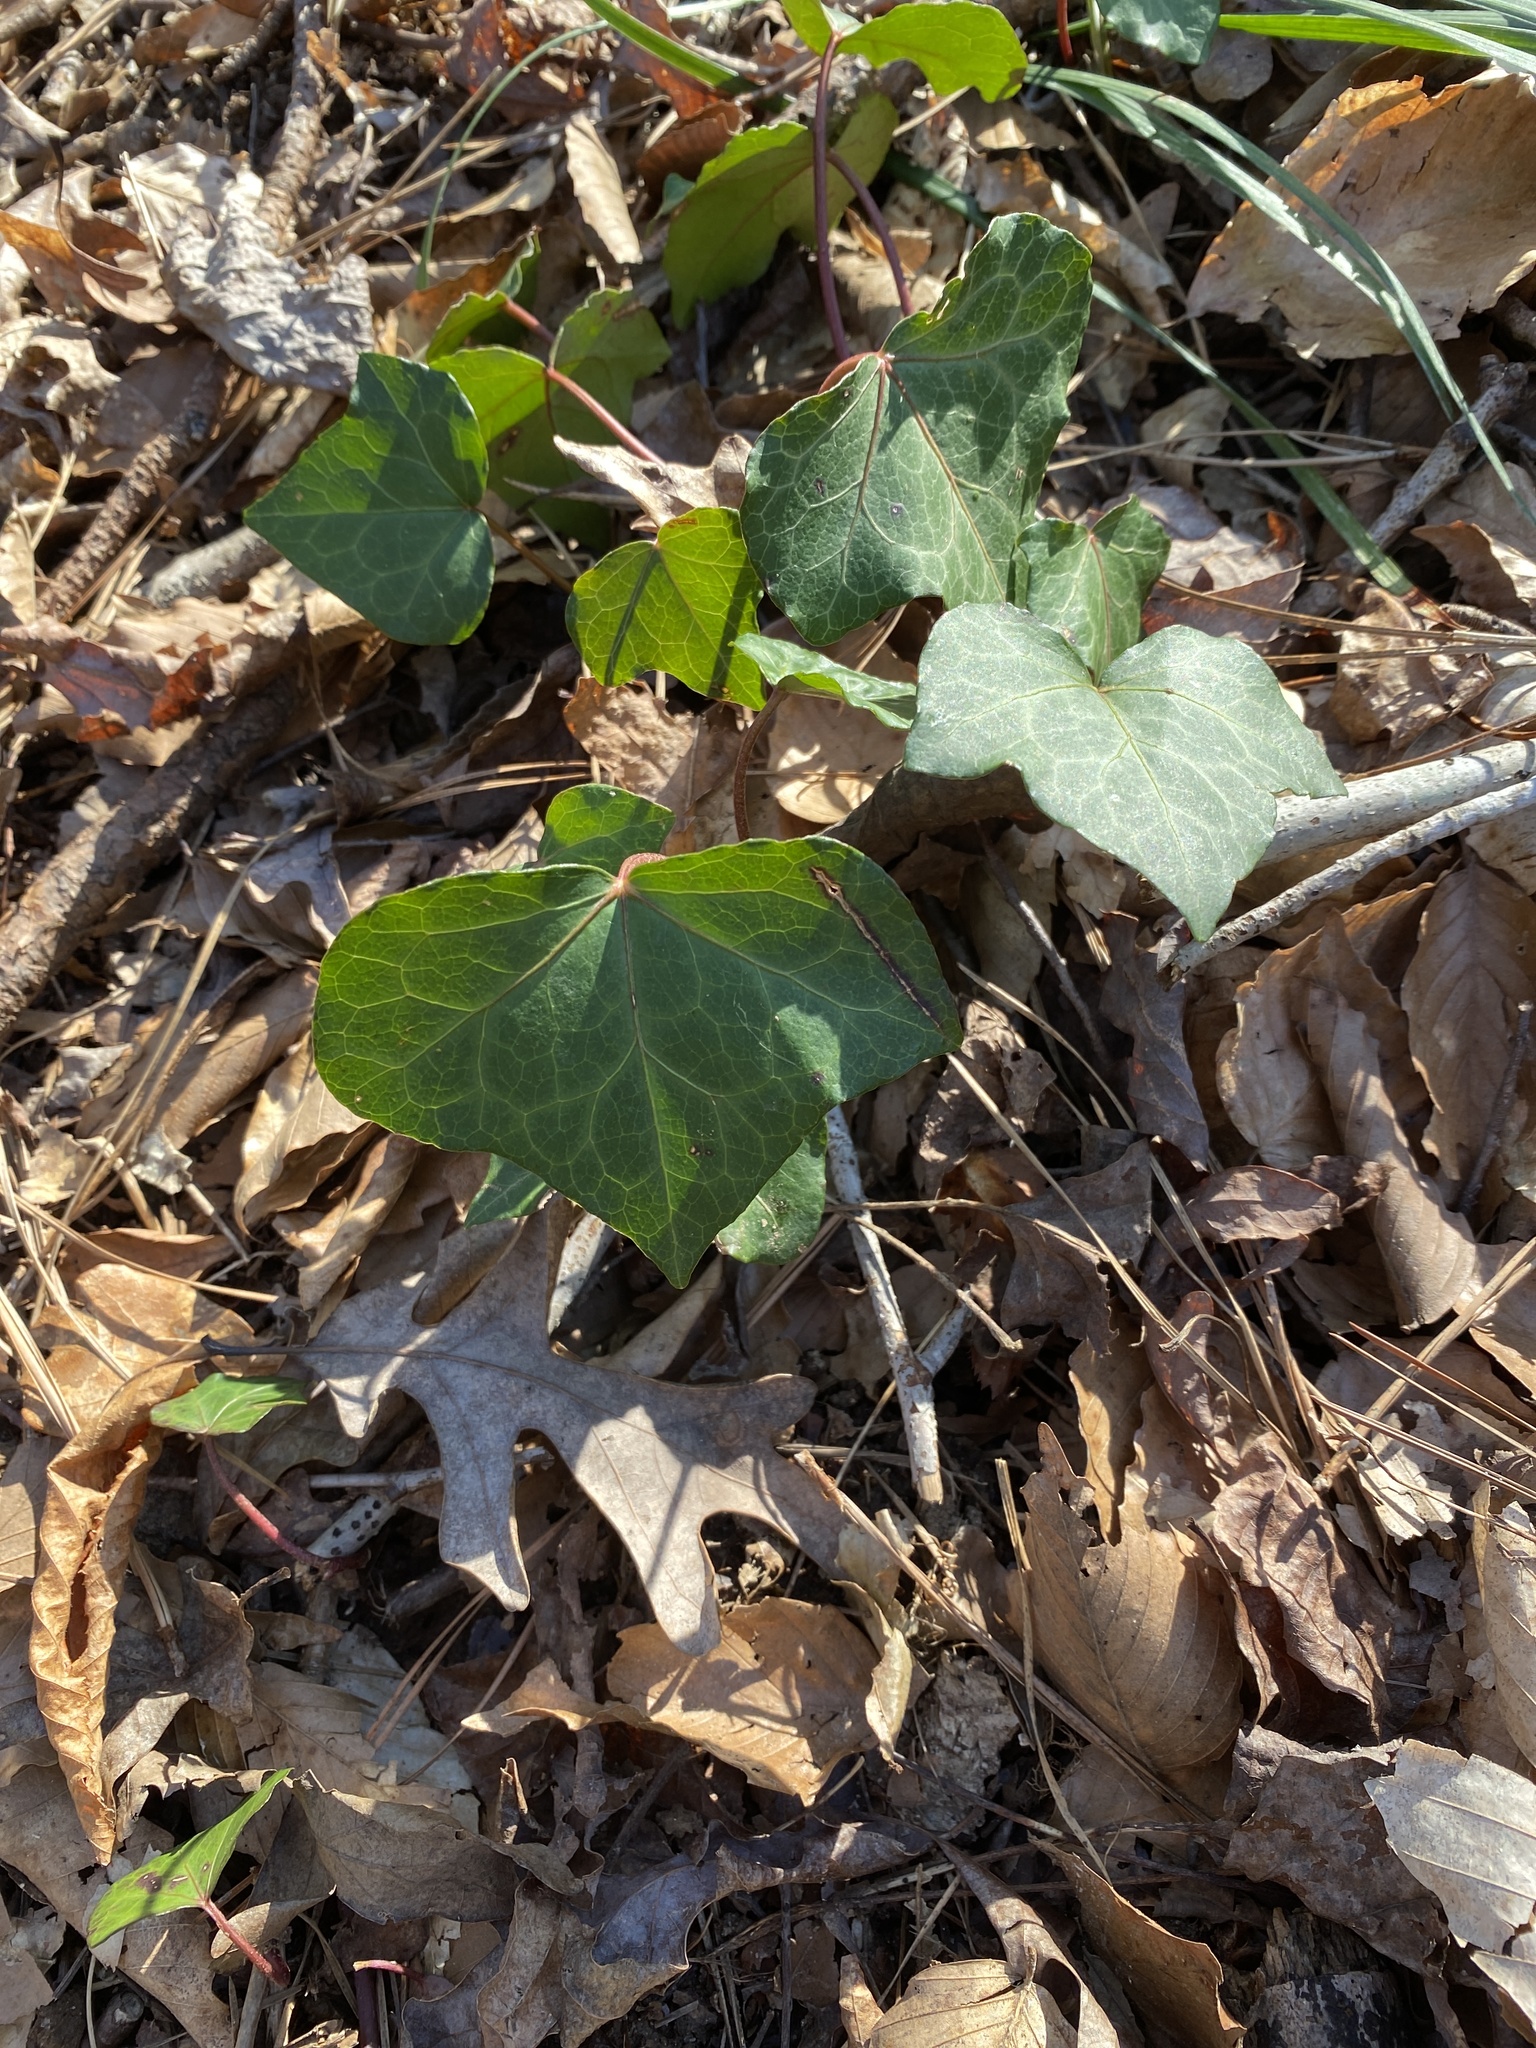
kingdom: Plantae
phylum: Tracheophyta
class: Magnoliopsida
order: Apiales
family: Araliaceae
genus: Hedera
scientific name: Hedera helix
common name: Ivy
